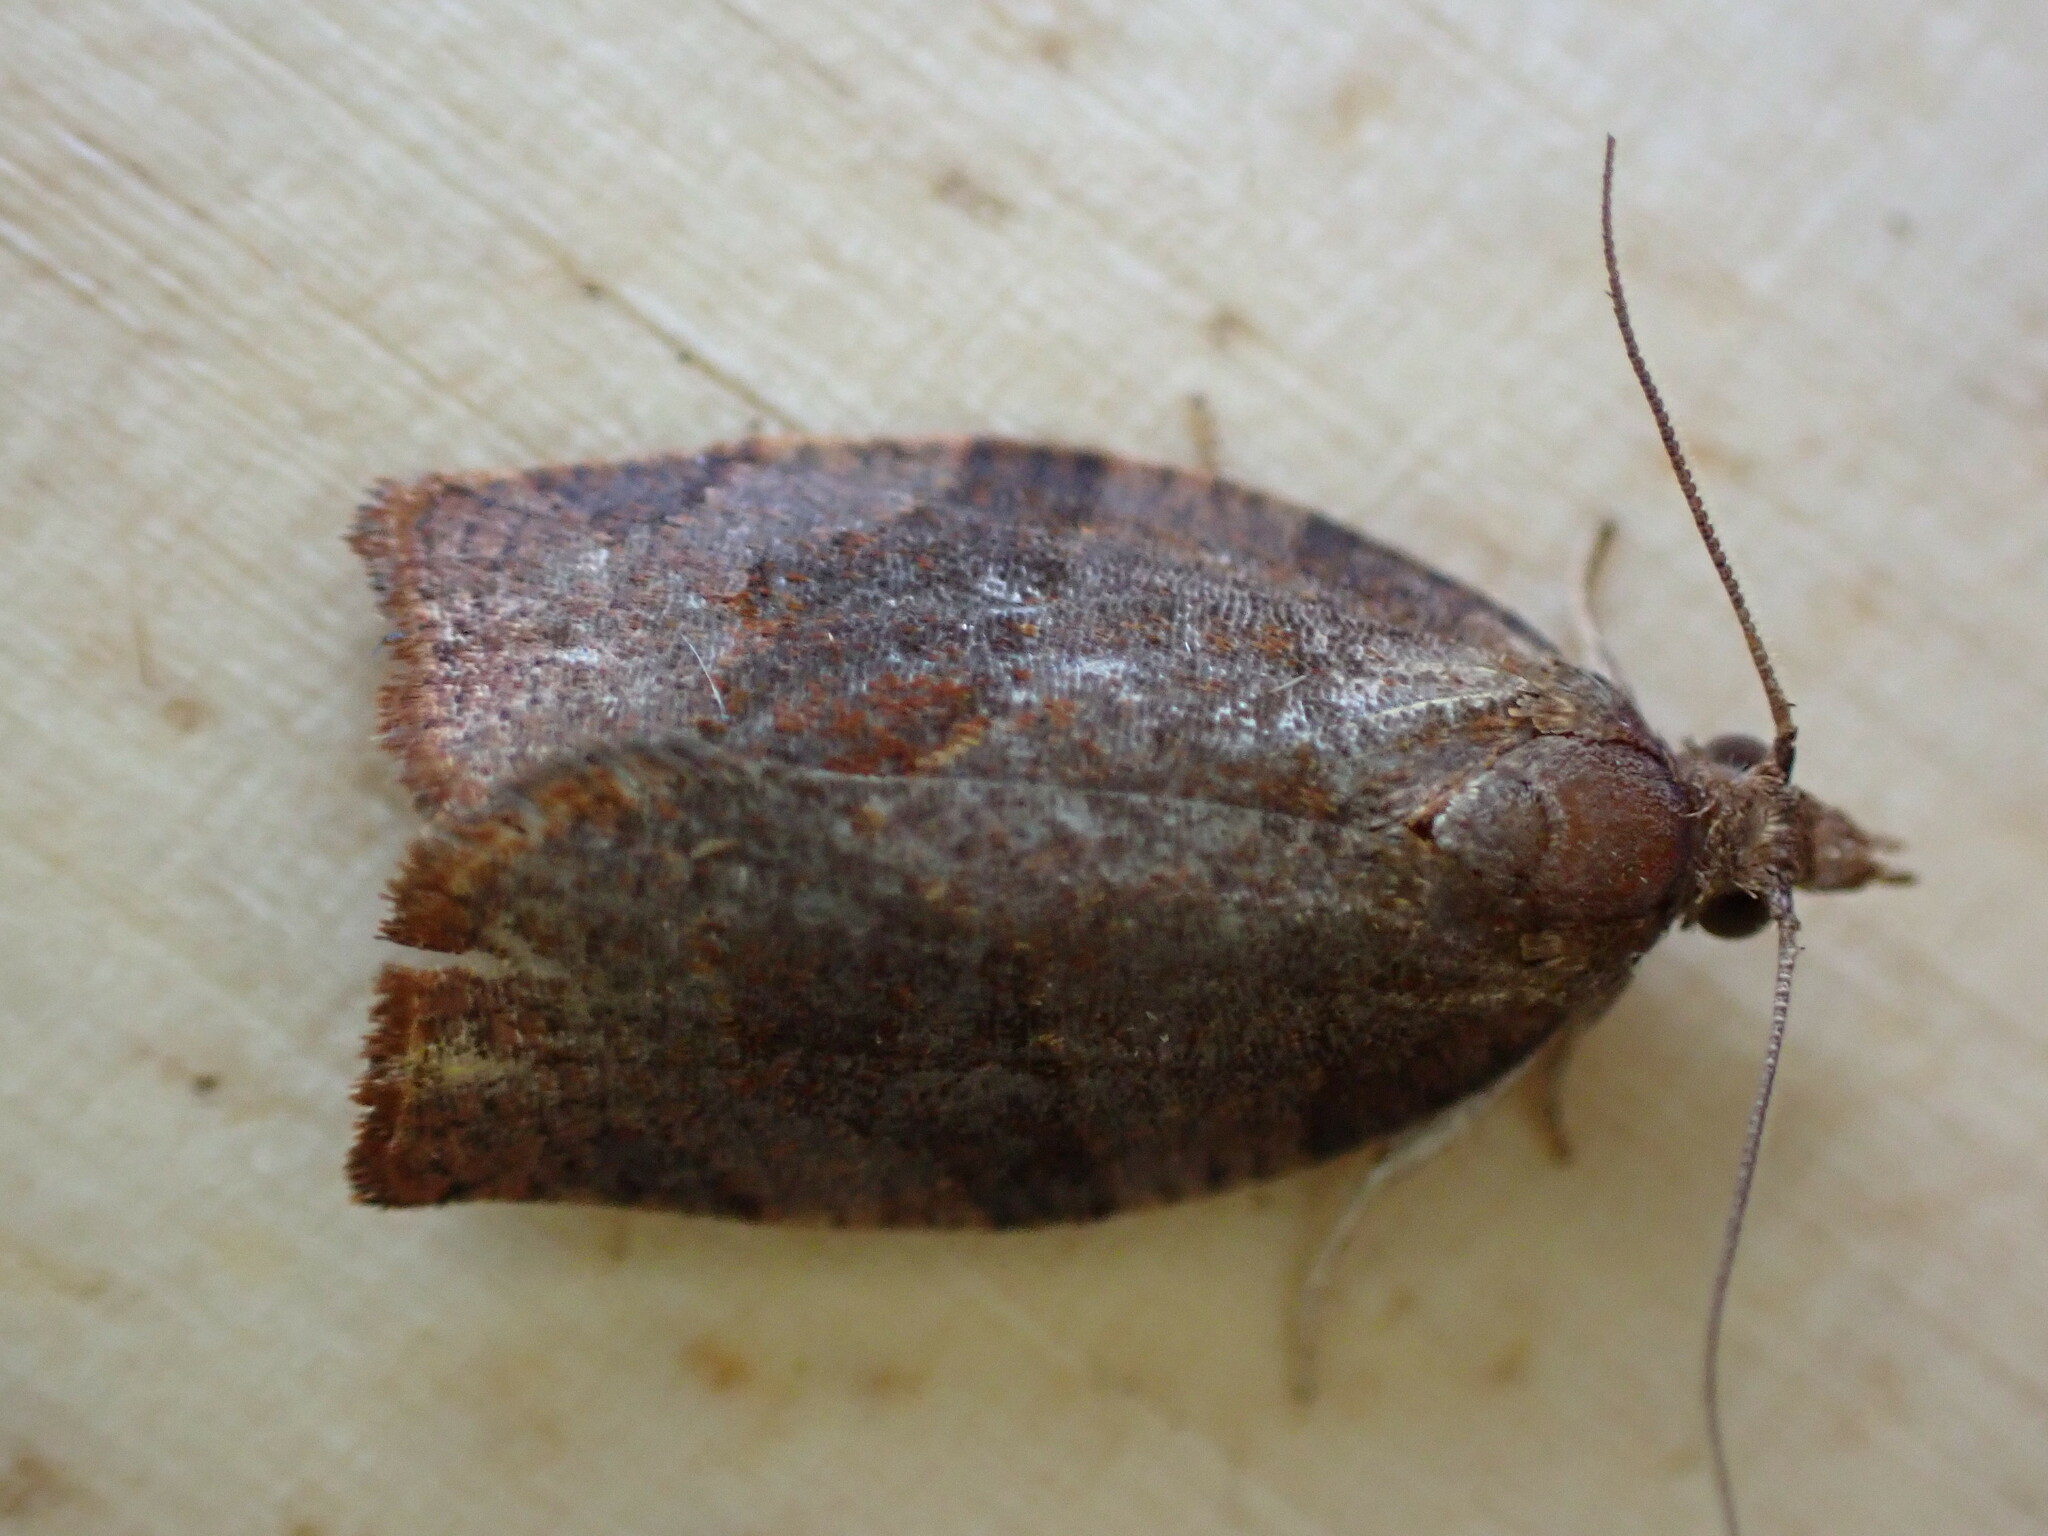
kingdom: Animalia
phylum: Arthropoda
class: Insecta
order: Lepidoptera
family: Tortricidae
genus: Pandemis
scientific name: Pandemis heparana
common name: Dark fruit-tree tortrix
